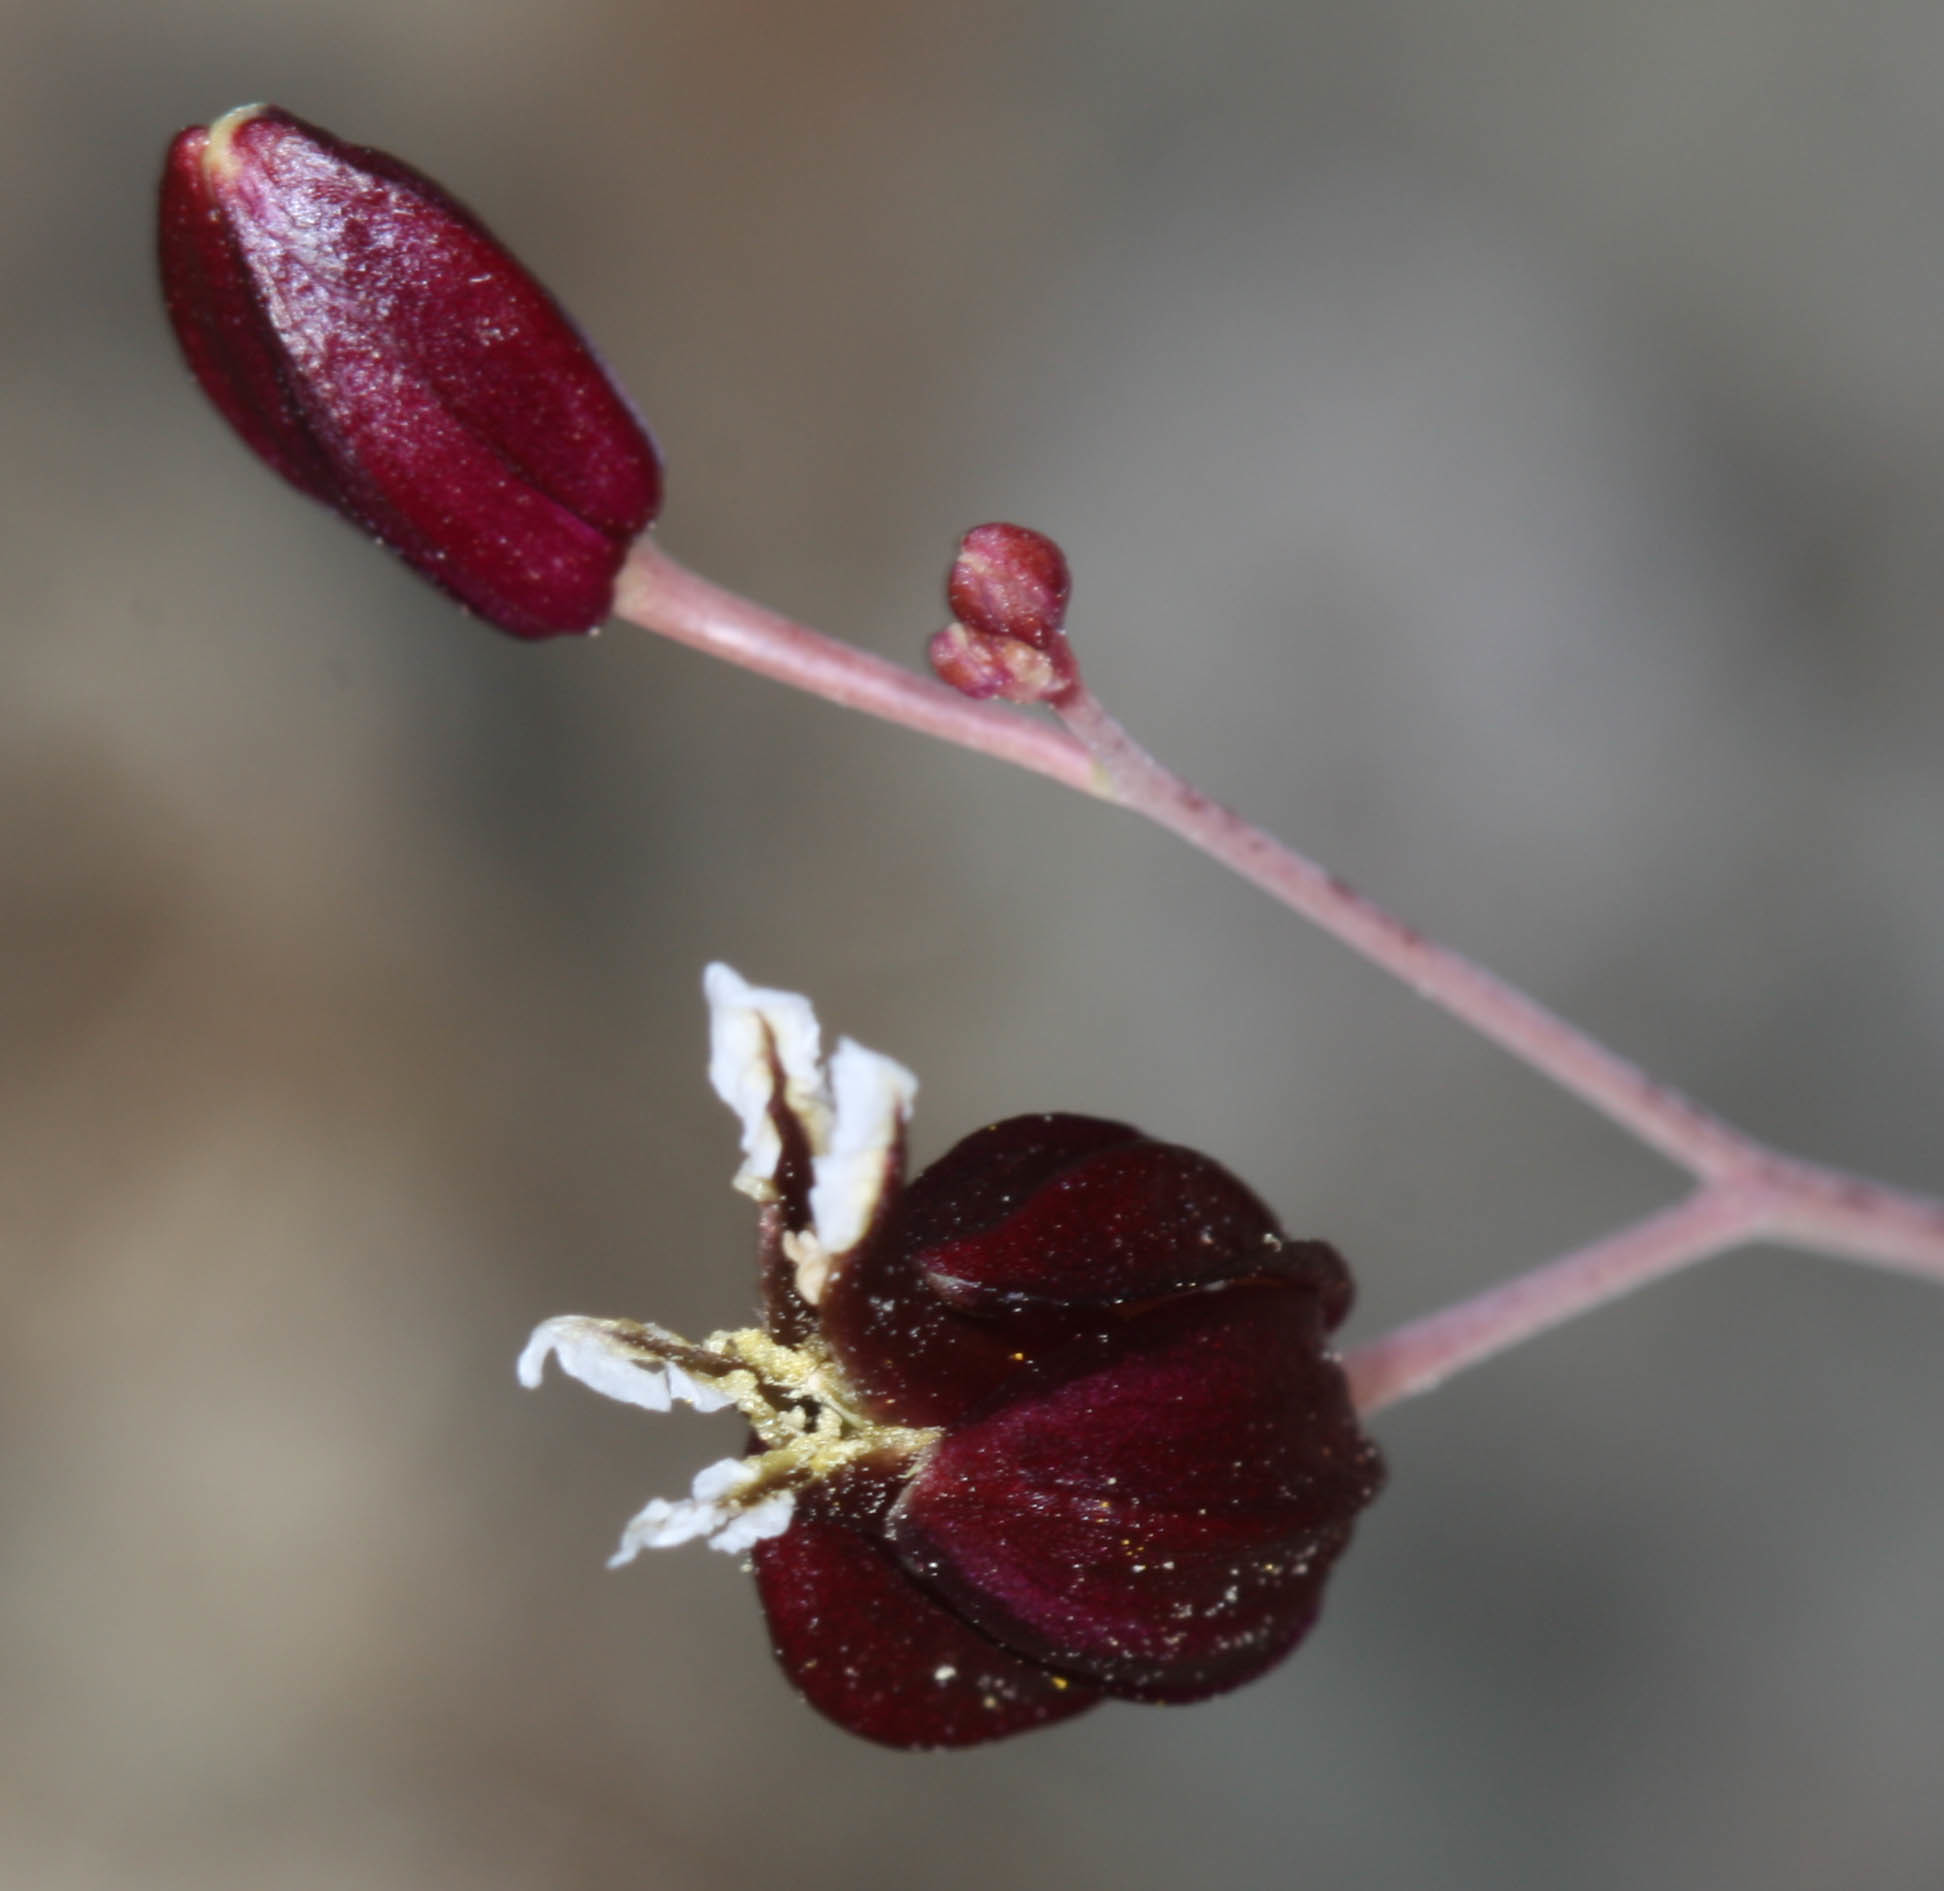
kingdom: Plantae
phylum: Tracheophyta
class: Magnoliopsida
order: Brassicales
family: Brassicaceae
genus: Streptanthus
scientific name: Streptanthus glandulosus
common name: Jewel-flower
